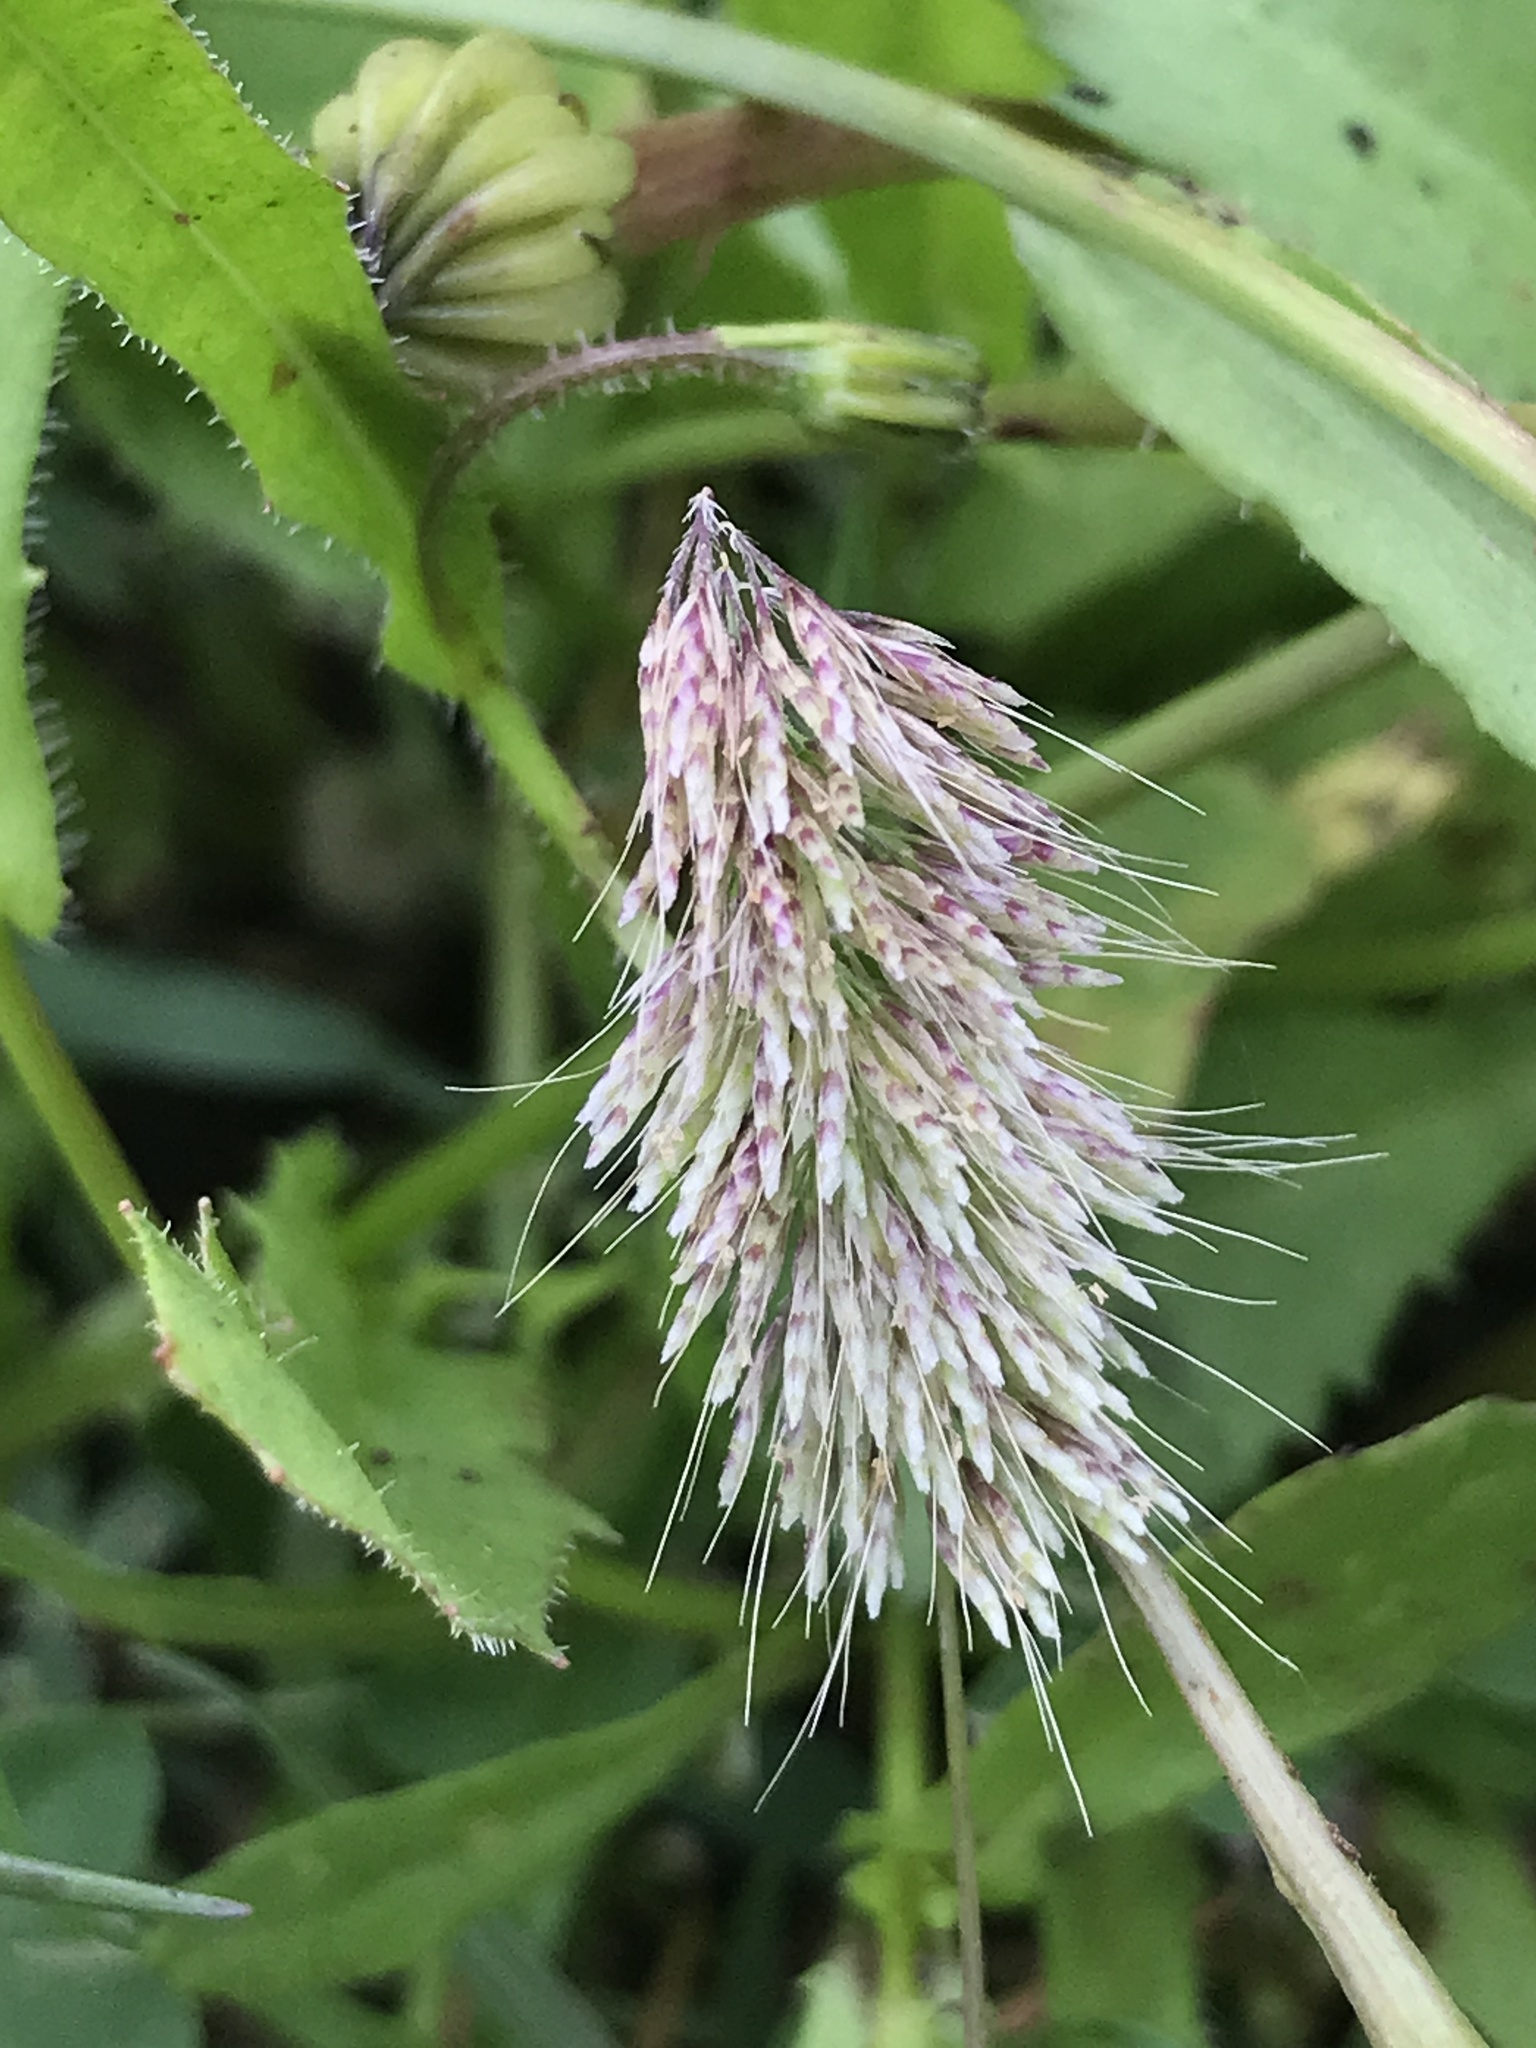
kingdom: Plantae
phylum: Tracheophyta
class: Liliopsida
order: Poales
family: Poaceae
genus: Lamarckia
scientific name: Lamarckia aurea
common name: Golden dog's-tail
